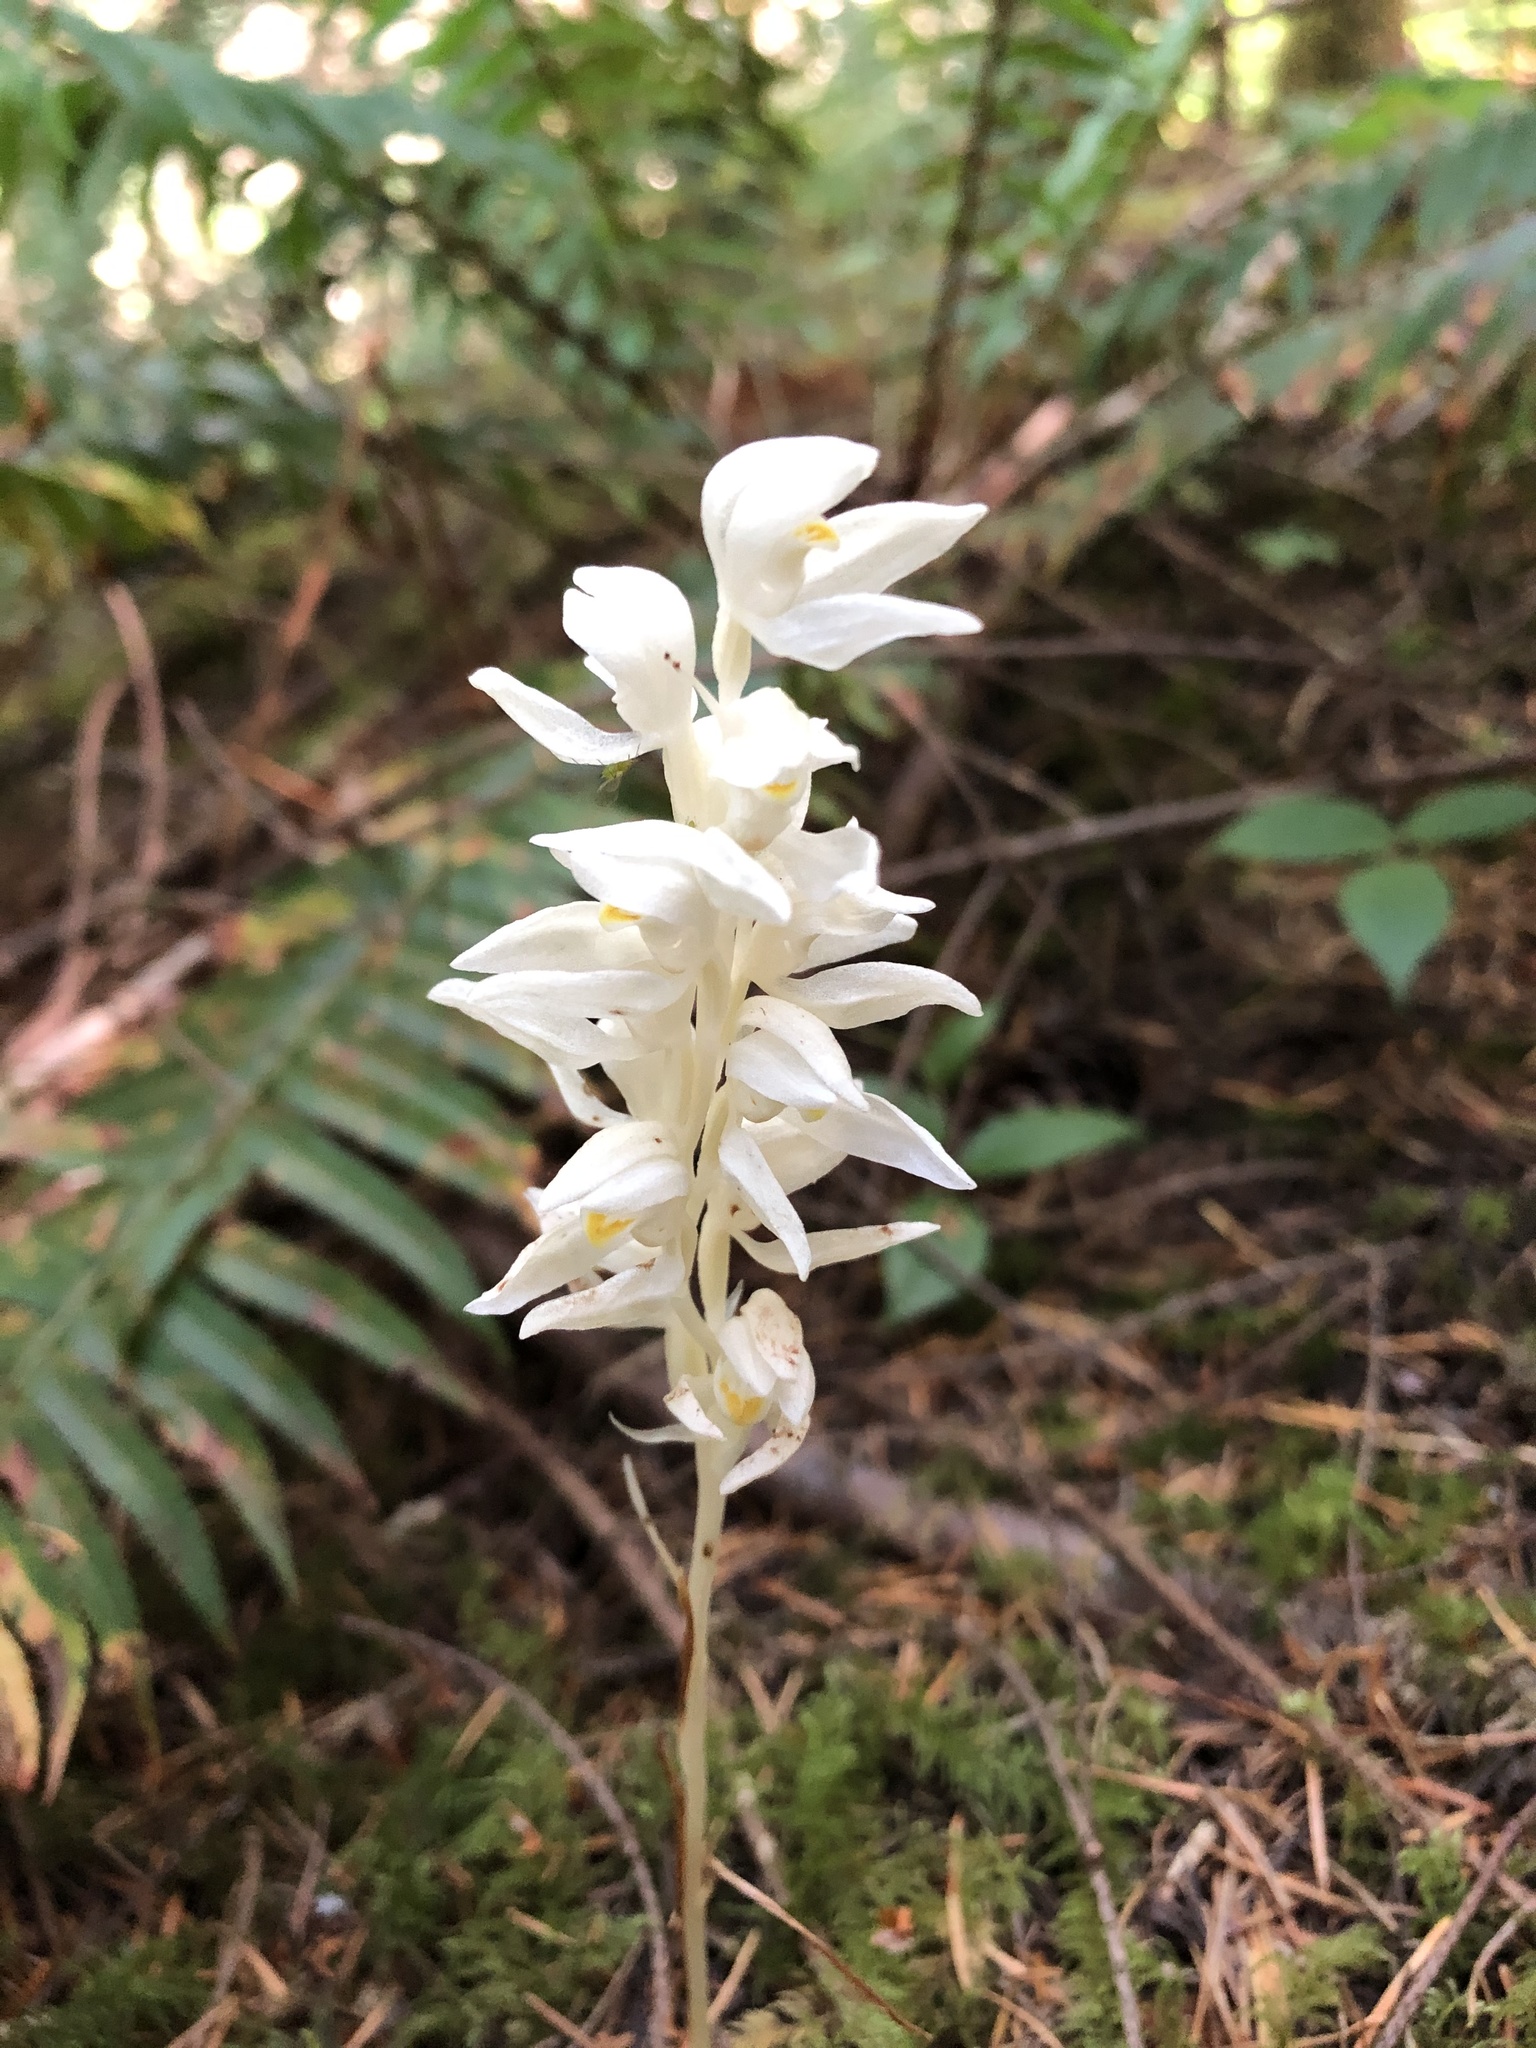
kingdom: Plantae
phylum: Tracheophyta
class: Liliopsida
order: Asparagales
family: Orchidaceae
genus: Cephalanthera
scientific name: Cephalanthera austiniae
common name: Phantom orchid
